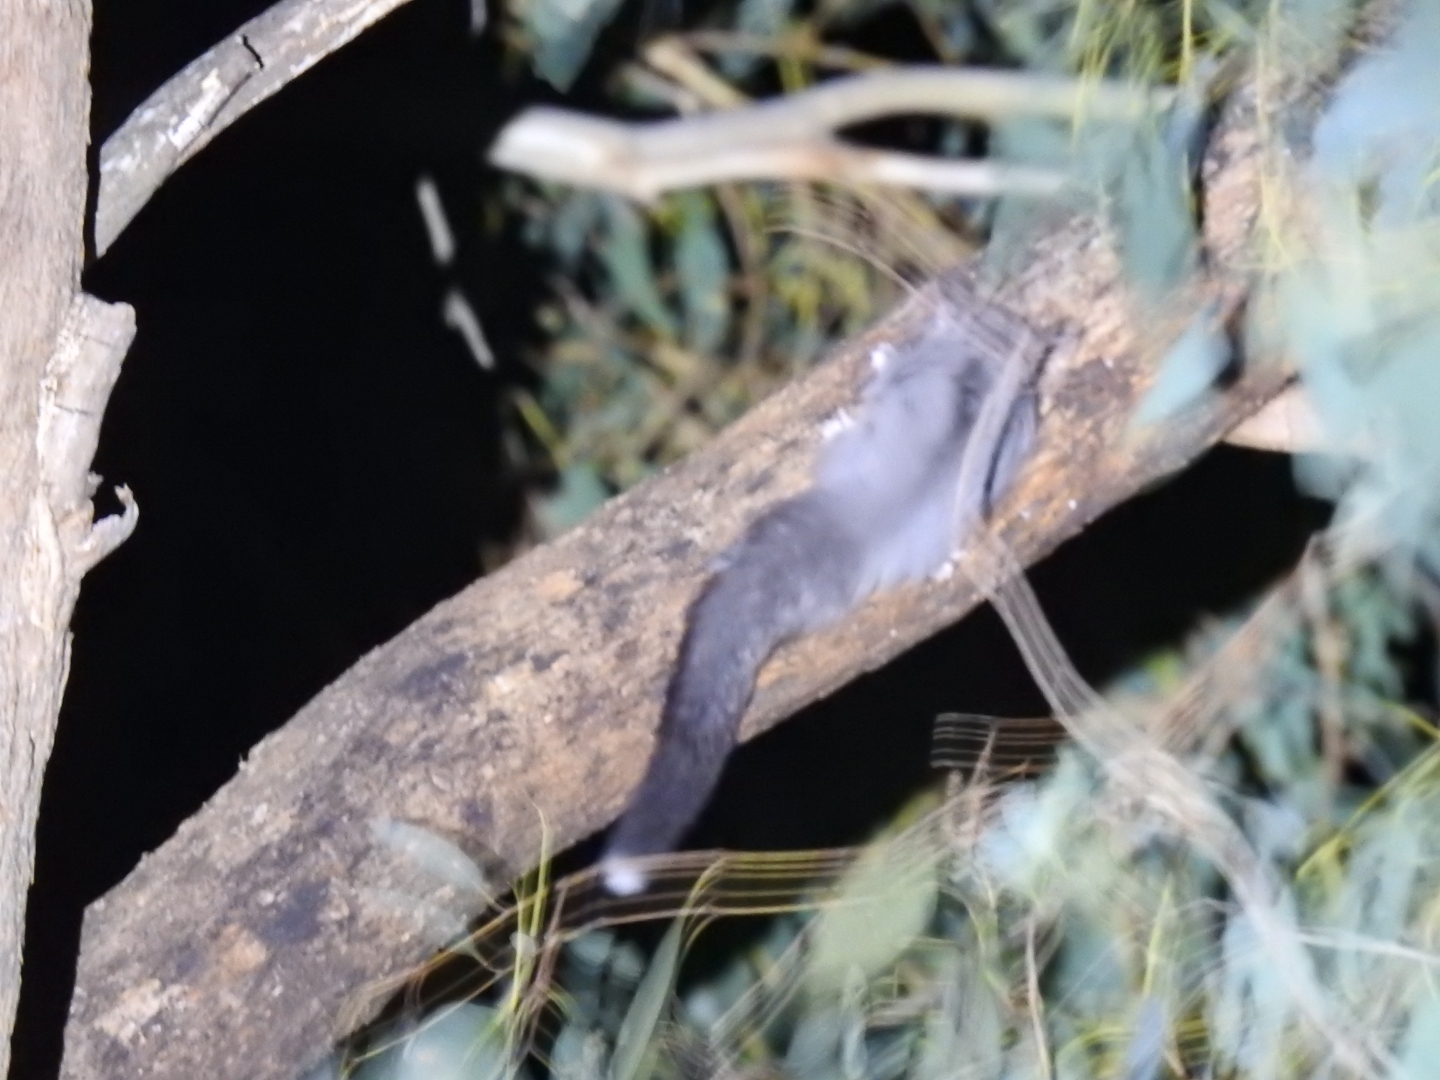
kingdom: Animalia
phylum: Chordata
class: Mammalia
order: Diprotodontia
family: Petauridae
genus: Petaurus
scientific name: Petaurus breviceps
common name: Sugar glider
